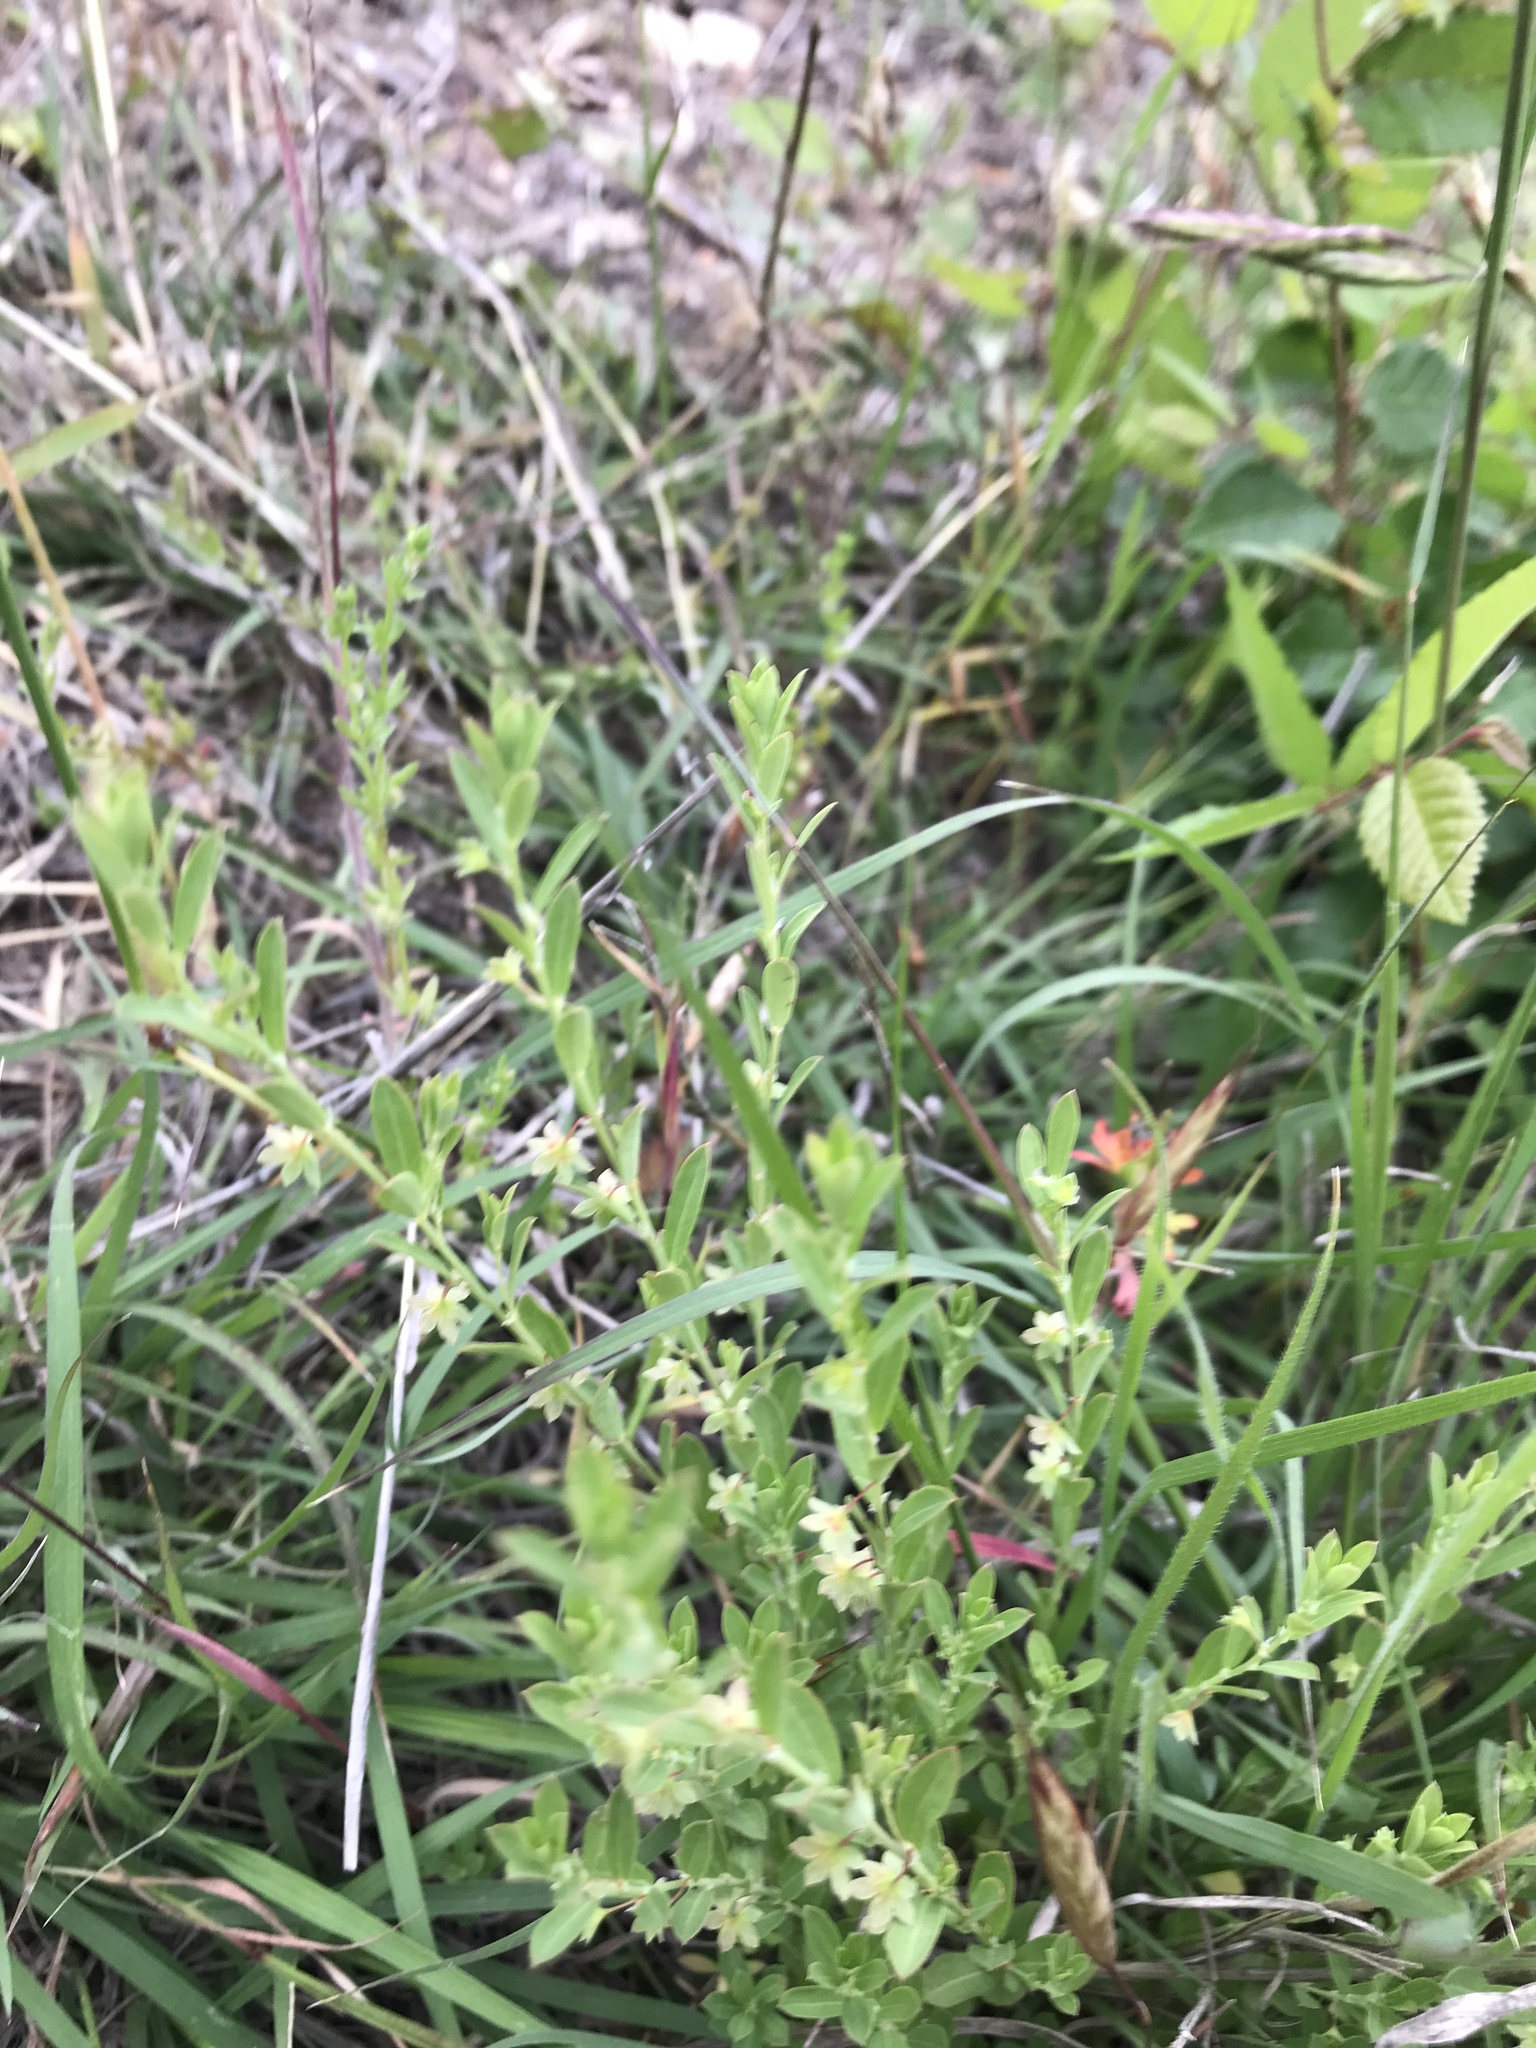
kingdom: Plantae
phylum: Tracheophyta
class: Magnoliopsida
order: Malpighiales
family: Phyllanthaceae
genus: Phyllanthus
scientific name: Phyllanthus polygonoides
